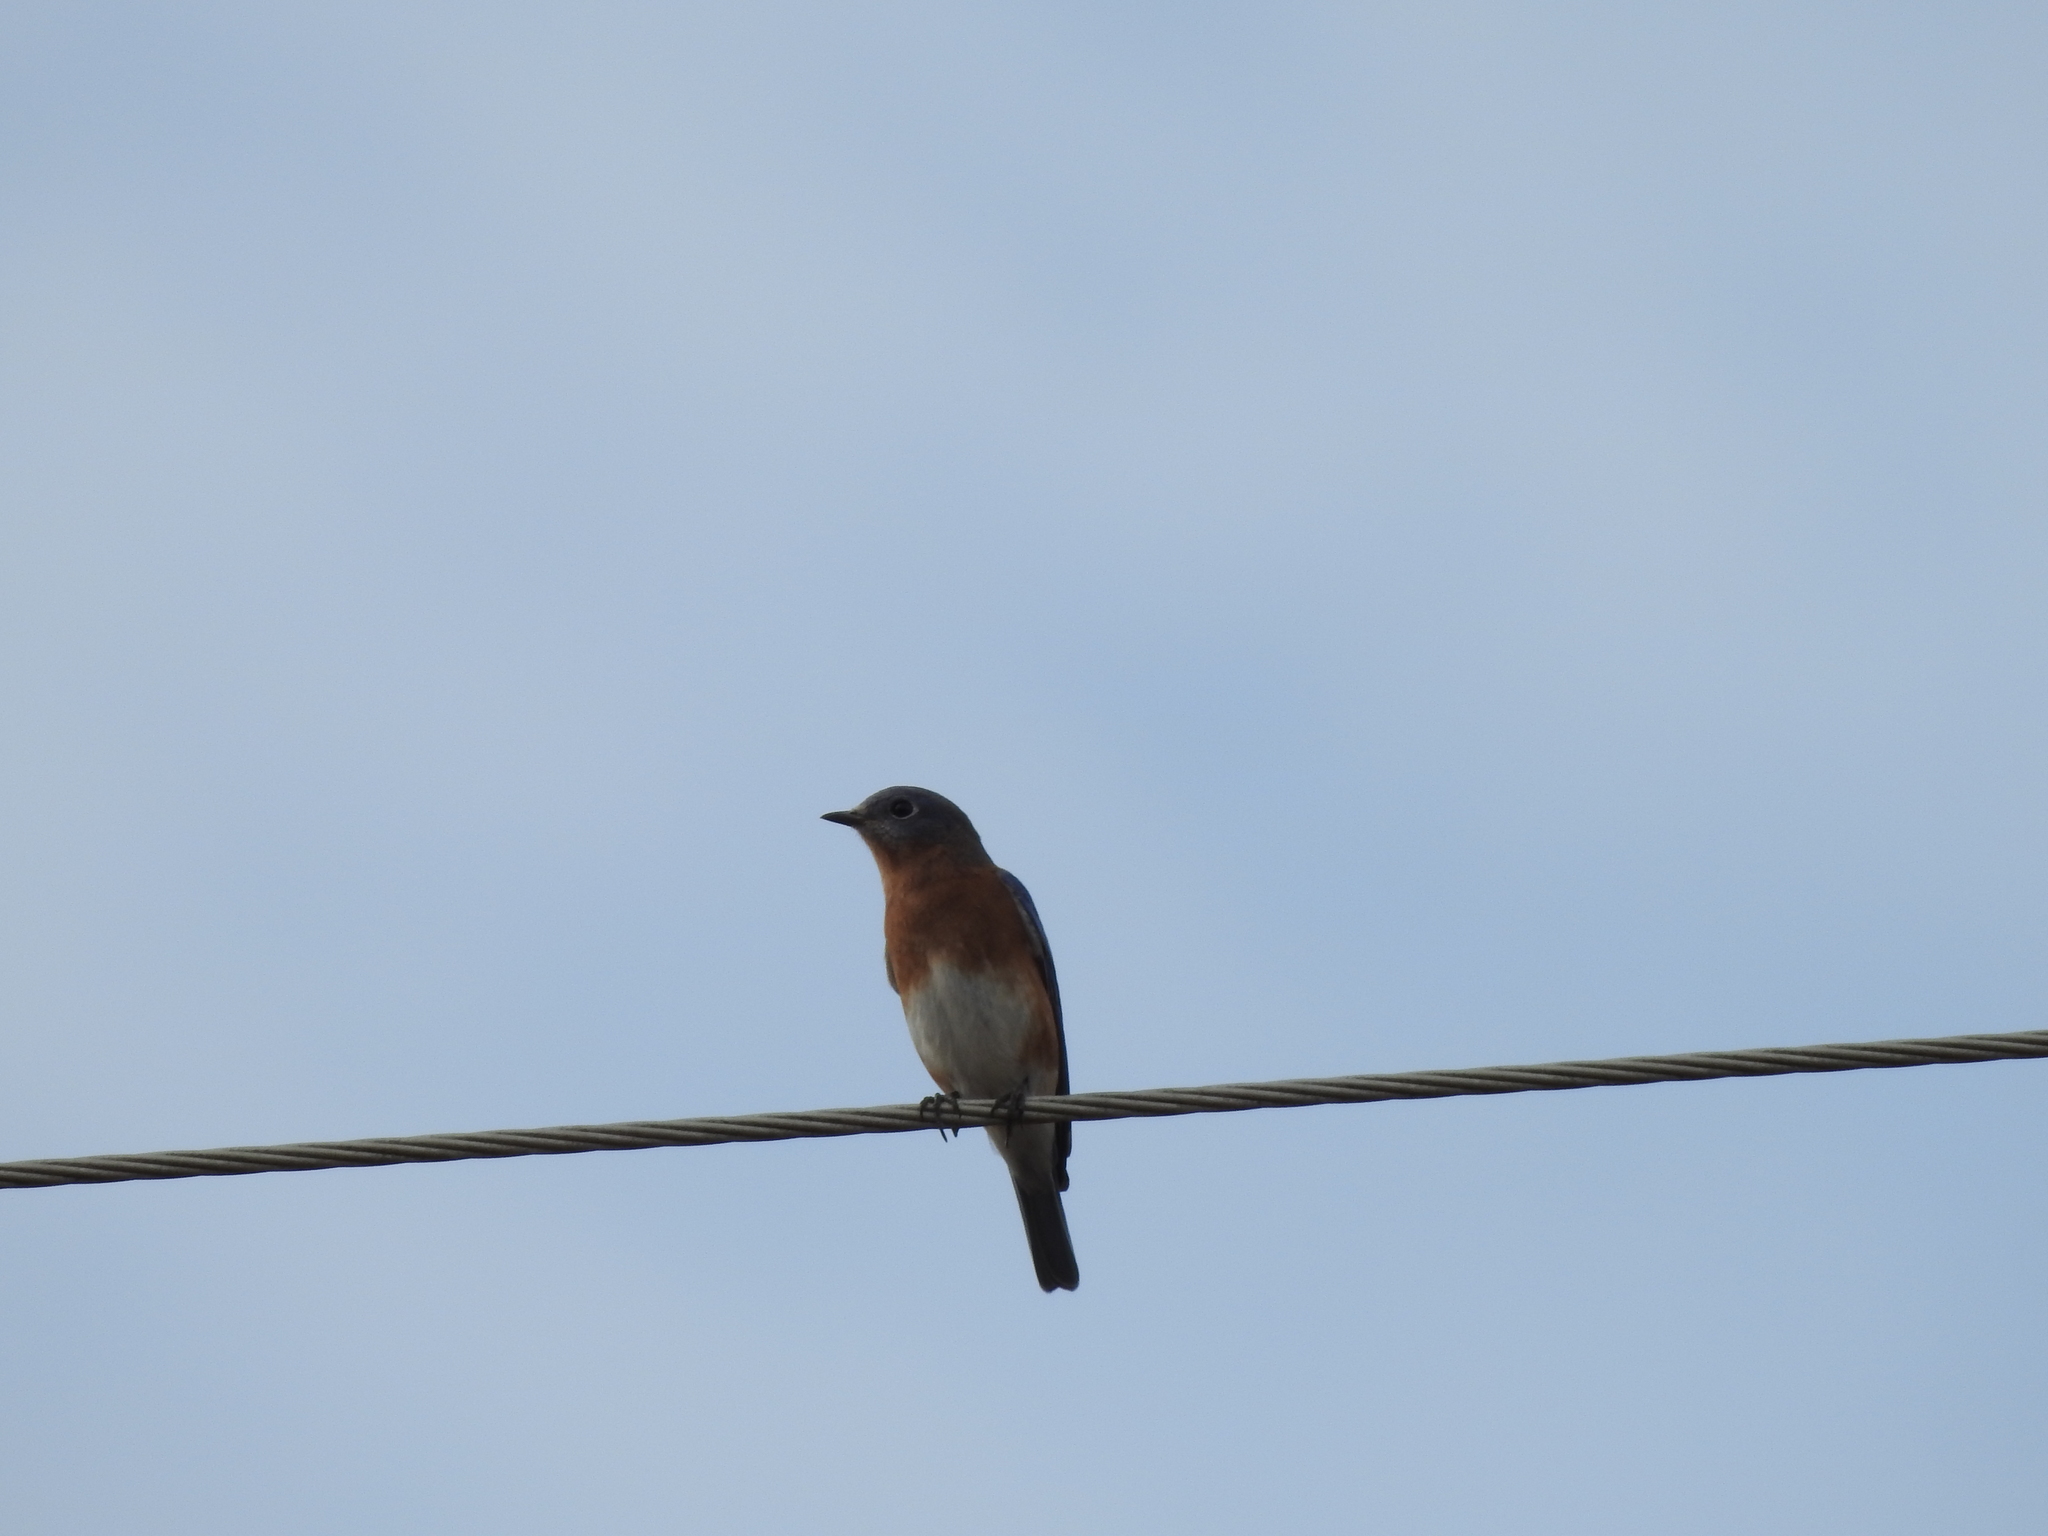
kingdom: Animalia
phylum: Chordata
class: Aves
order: Passeriformes
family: Turdidae
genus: Sialia
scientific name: Sialia sialis
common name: Eastern bluebird
